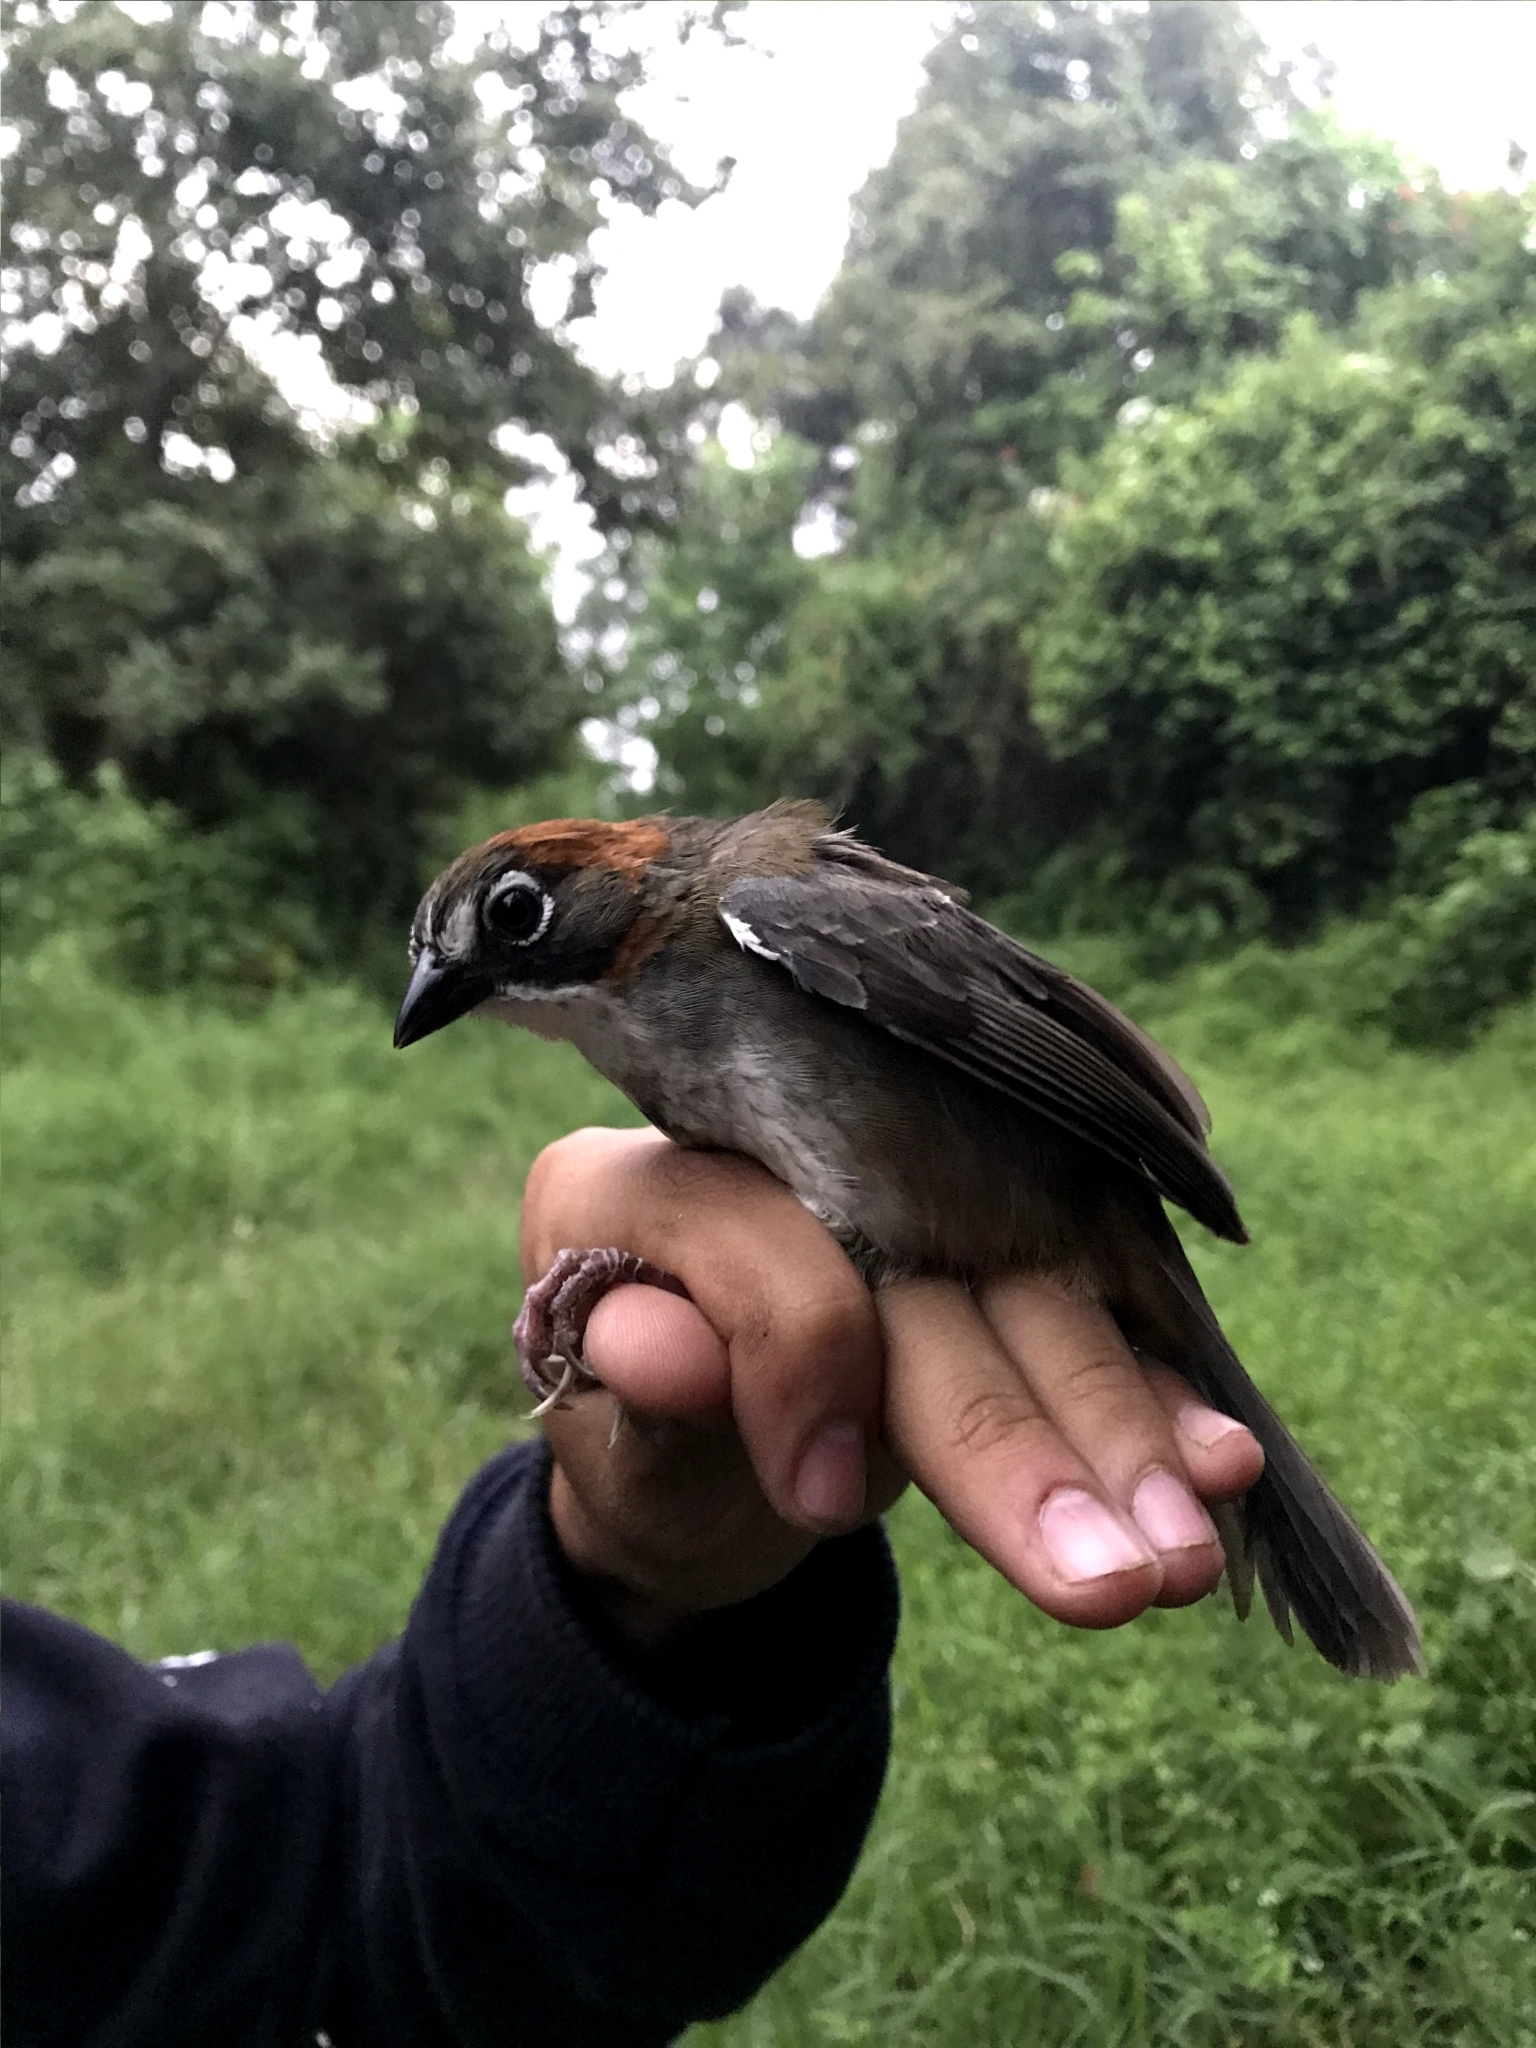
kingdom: Animalia
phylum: Chordata
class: Aves
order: Passeriformes
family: Passerellidae
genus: Melozone
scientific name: Melozone kieneri
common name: Rusty-crowned ground-sparrow
